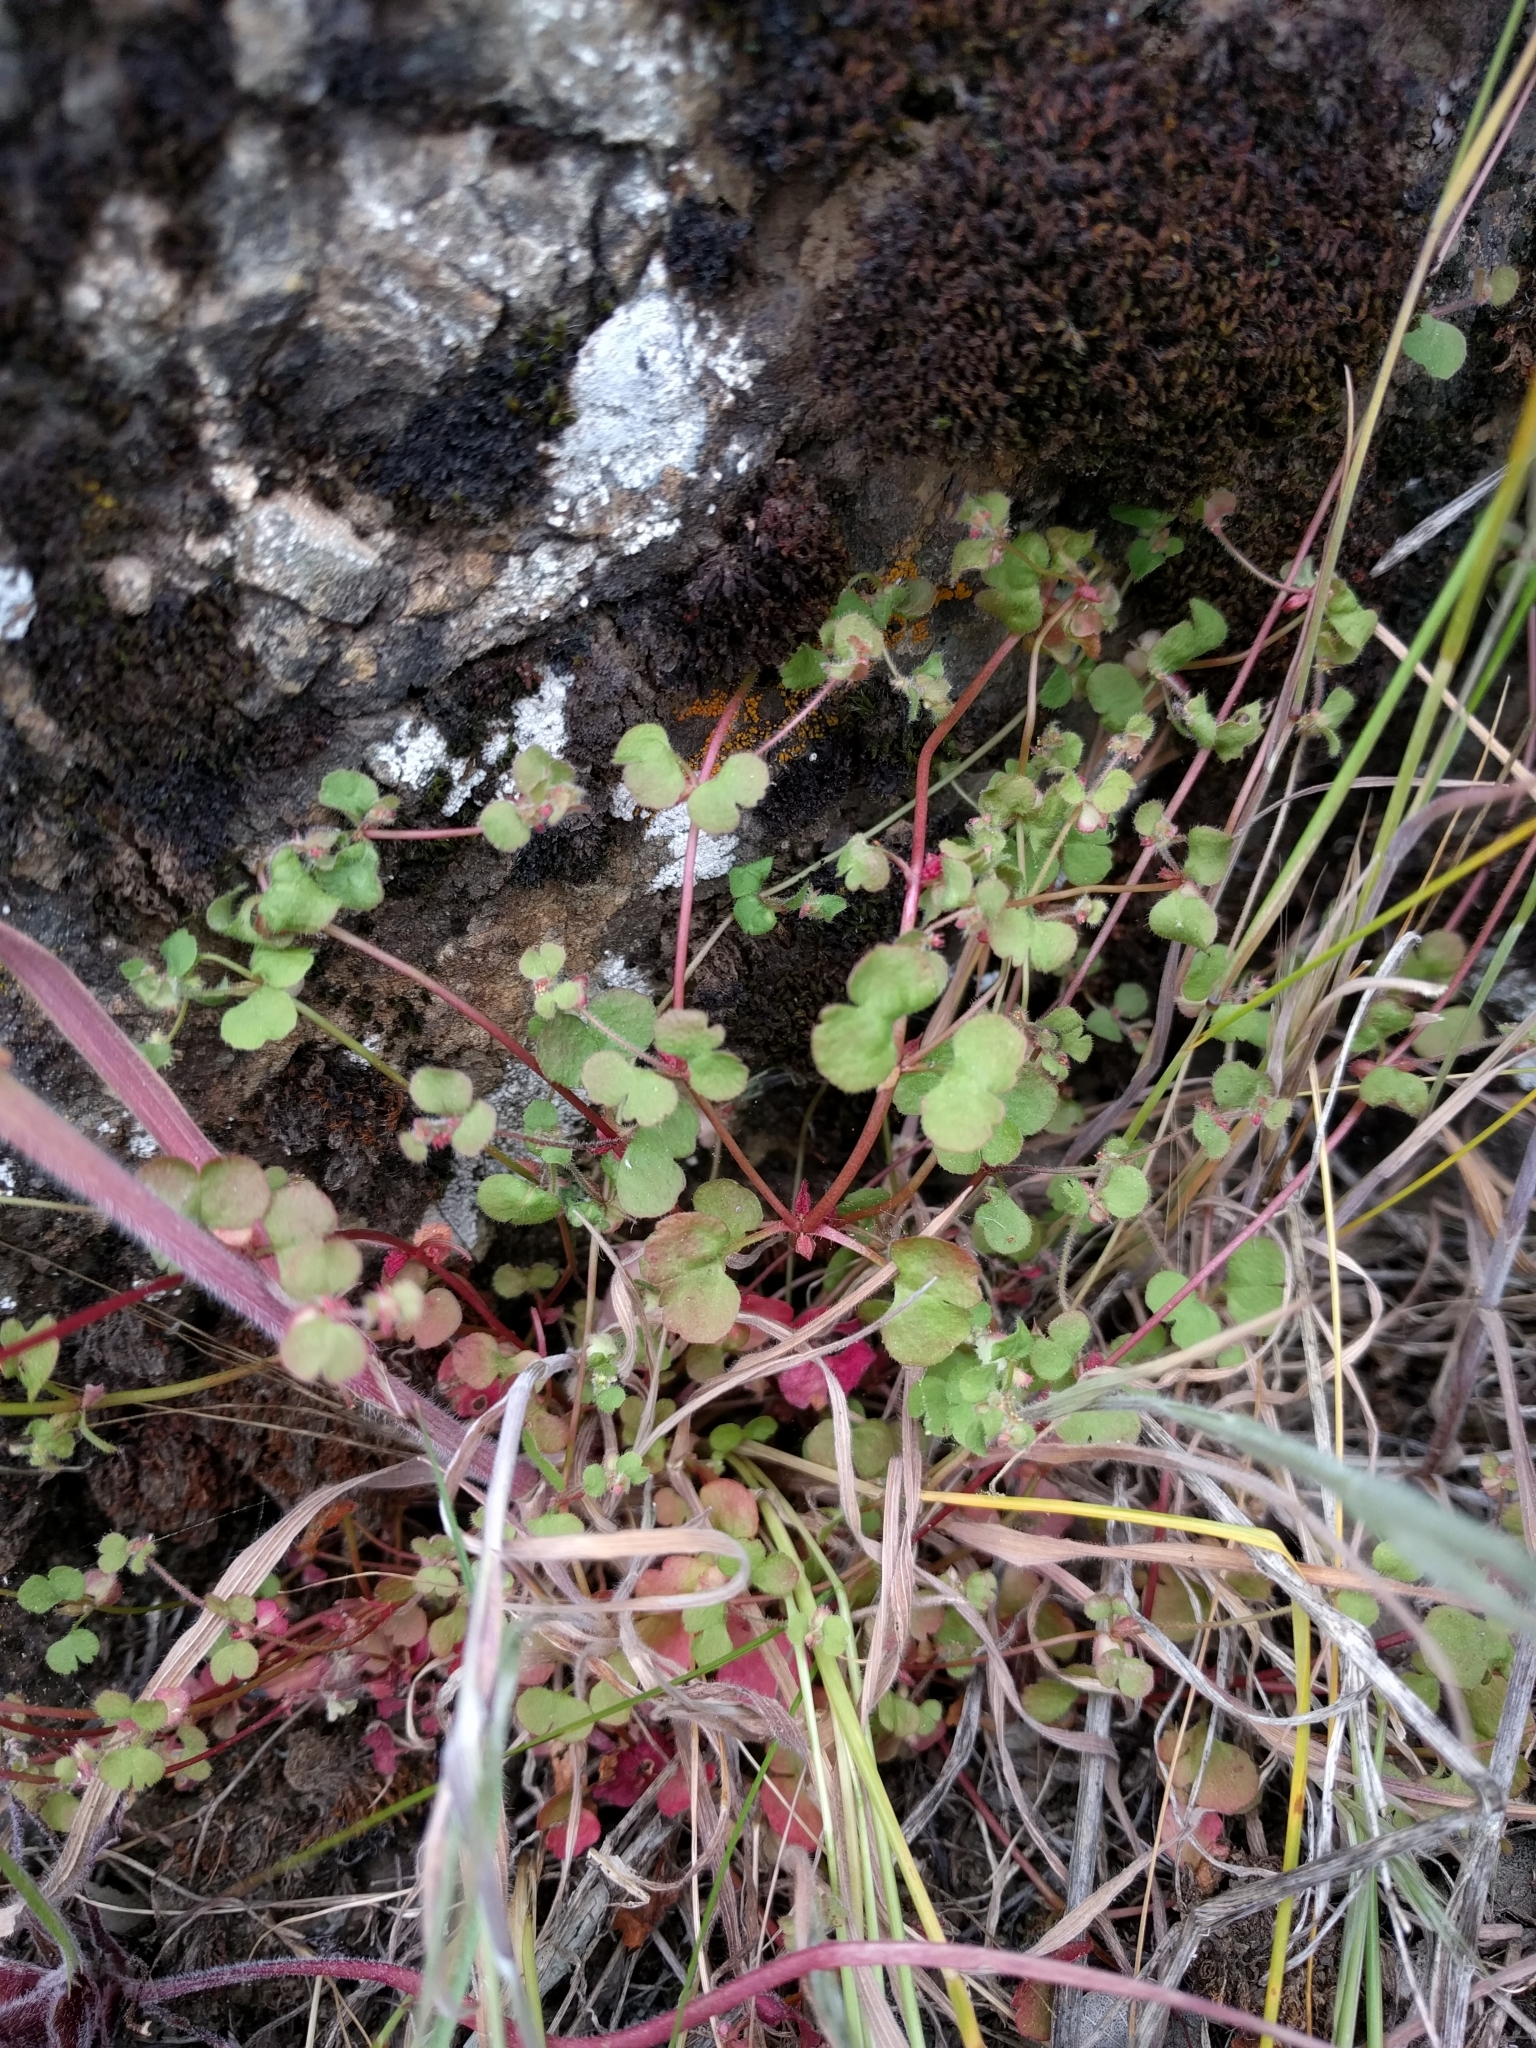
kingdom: Plantae
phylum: Tracheophyta
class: Magnoliopsida
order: Caryophyllales
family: Polygonaceae
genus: Pterostegia
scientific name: Pterostegia drymarioides
